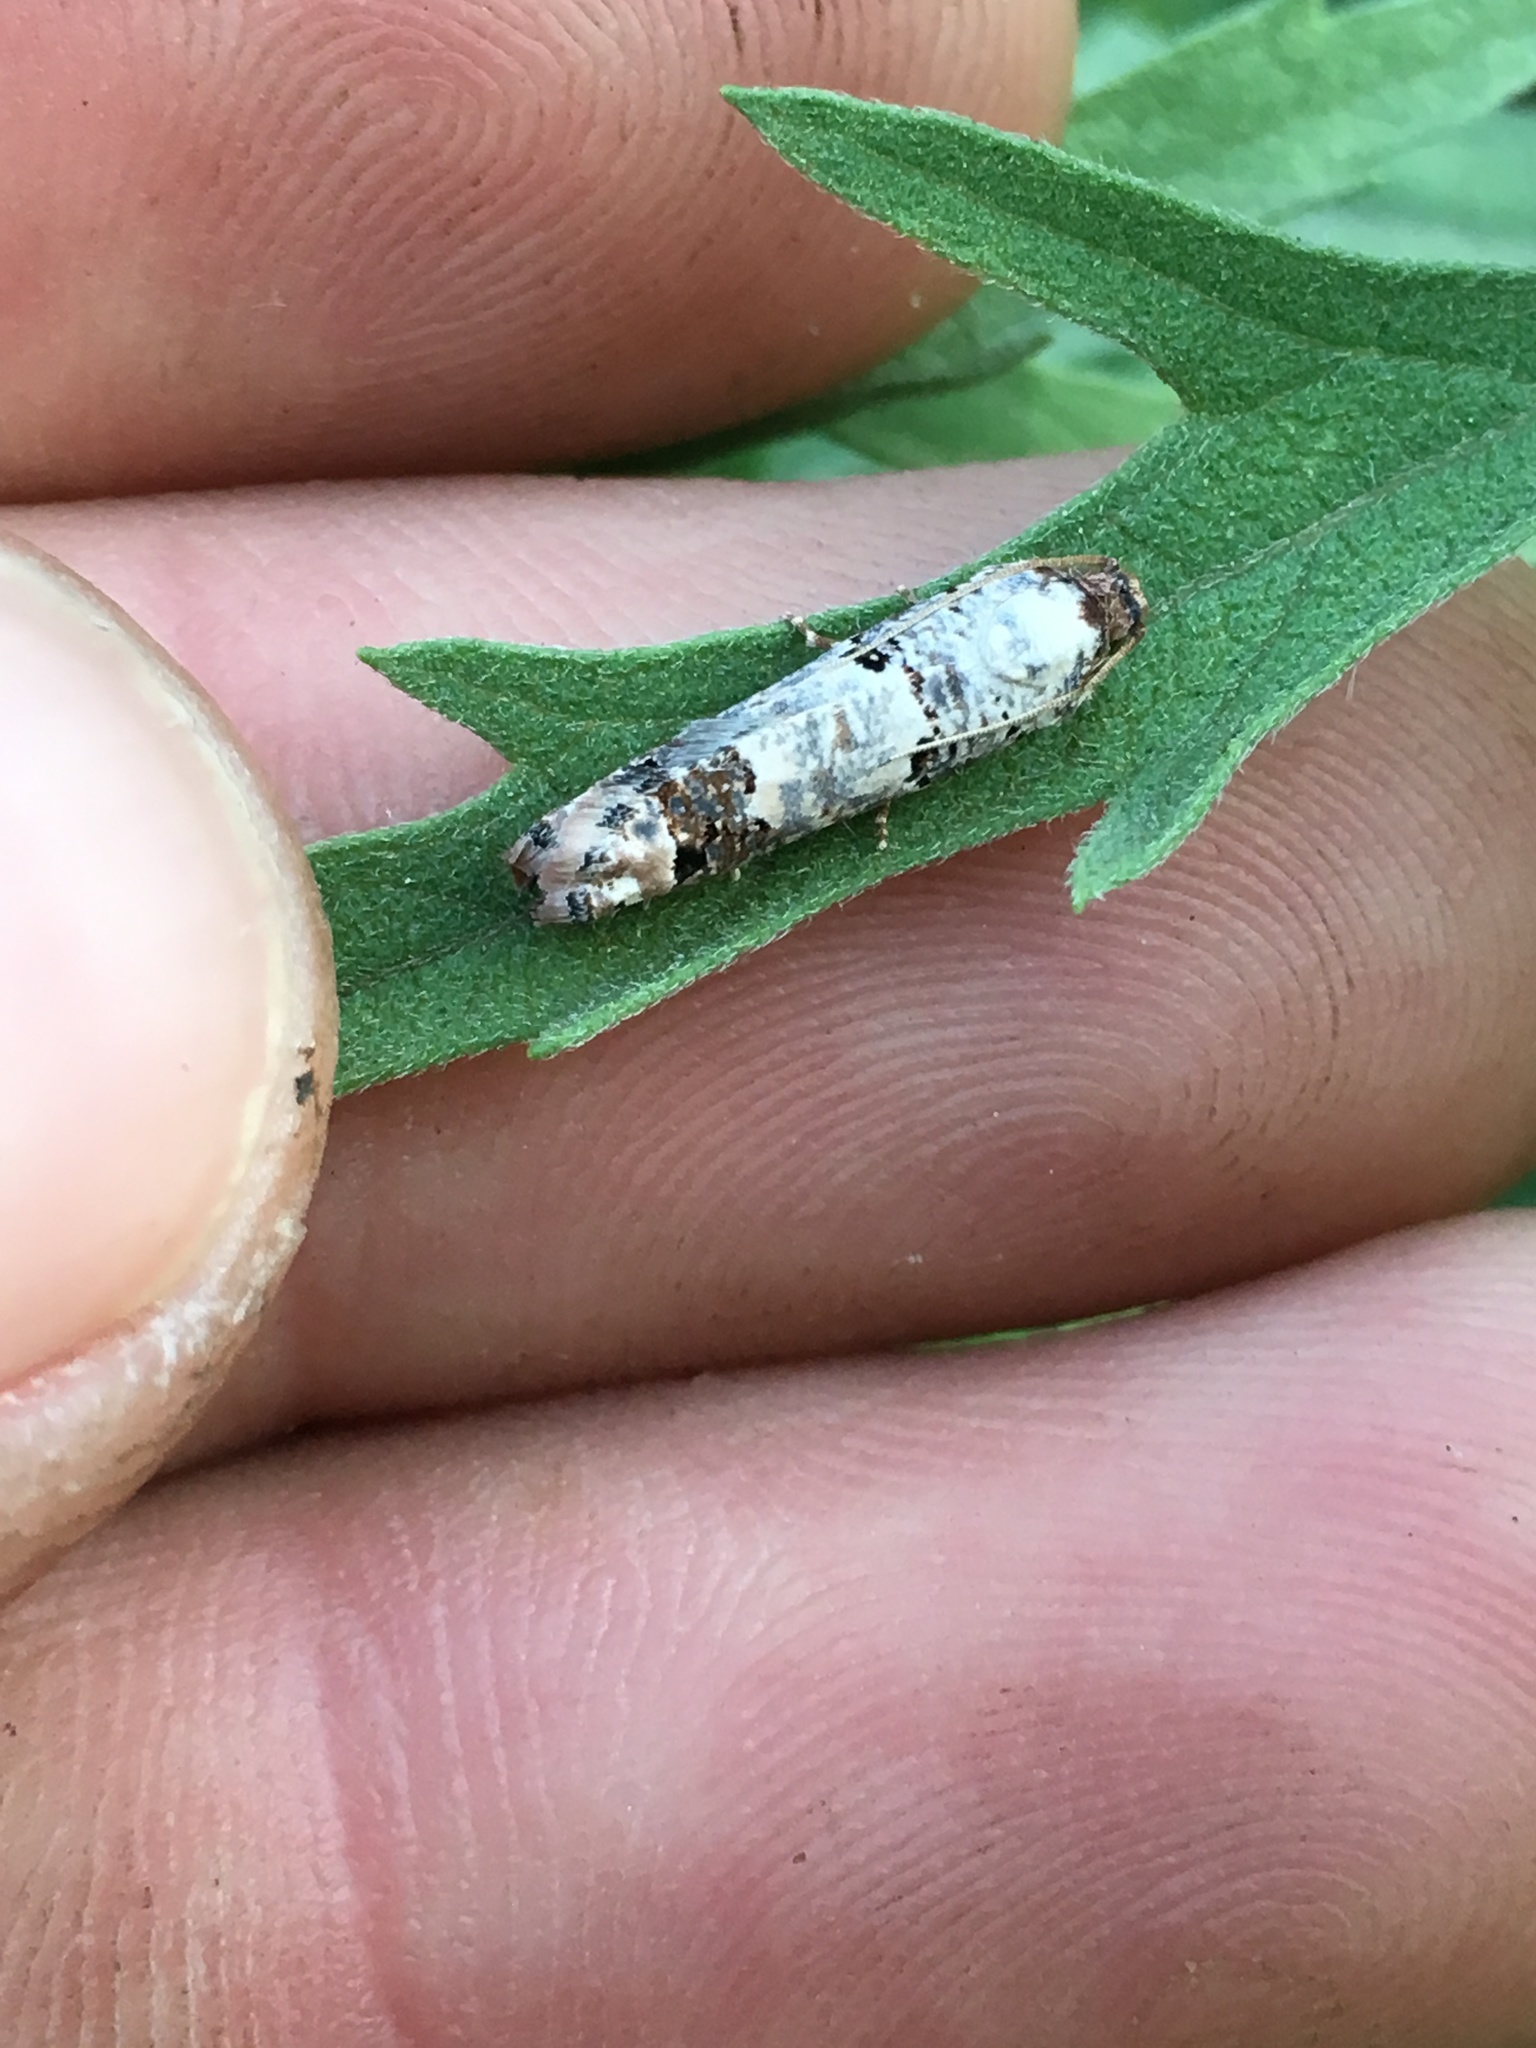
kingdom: Animalia
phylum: Arthropoda
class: Insecta
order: Lepidoptera
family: Tortricidae
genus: Pelochrista
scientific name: Pelochrista eburata
